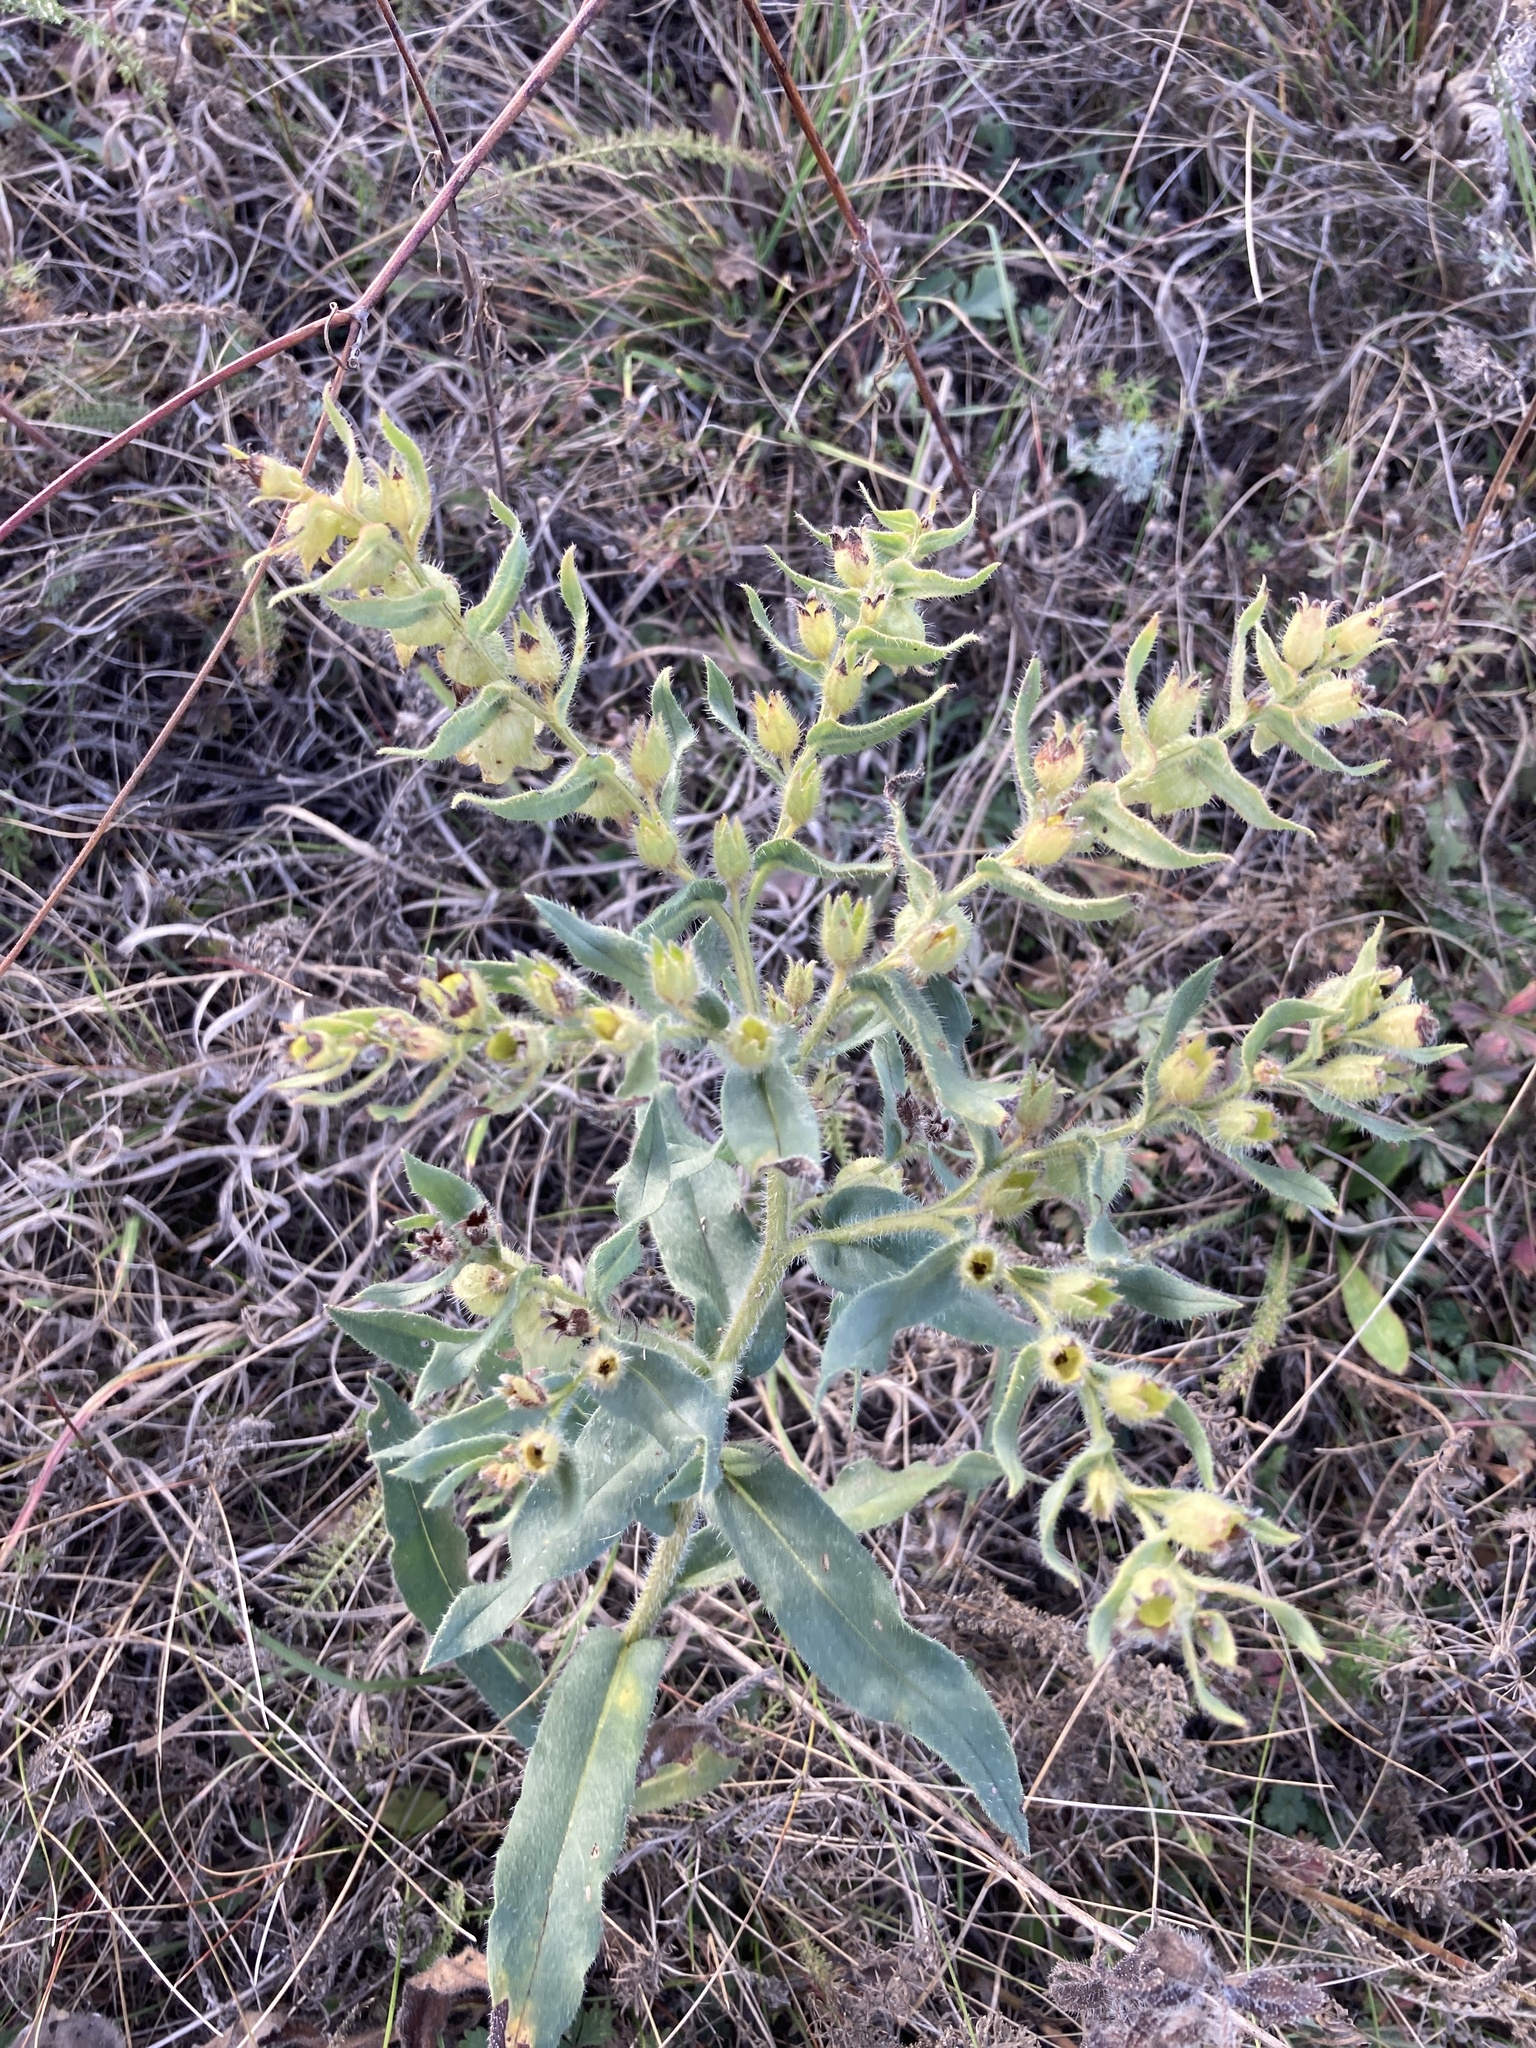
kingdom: Plantae
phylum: Tracheophyta
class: Magnoliopsida
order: Boraginales
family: Boraginaceae
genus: Nonea
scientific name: Nonea pulla
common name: Brown nonea
